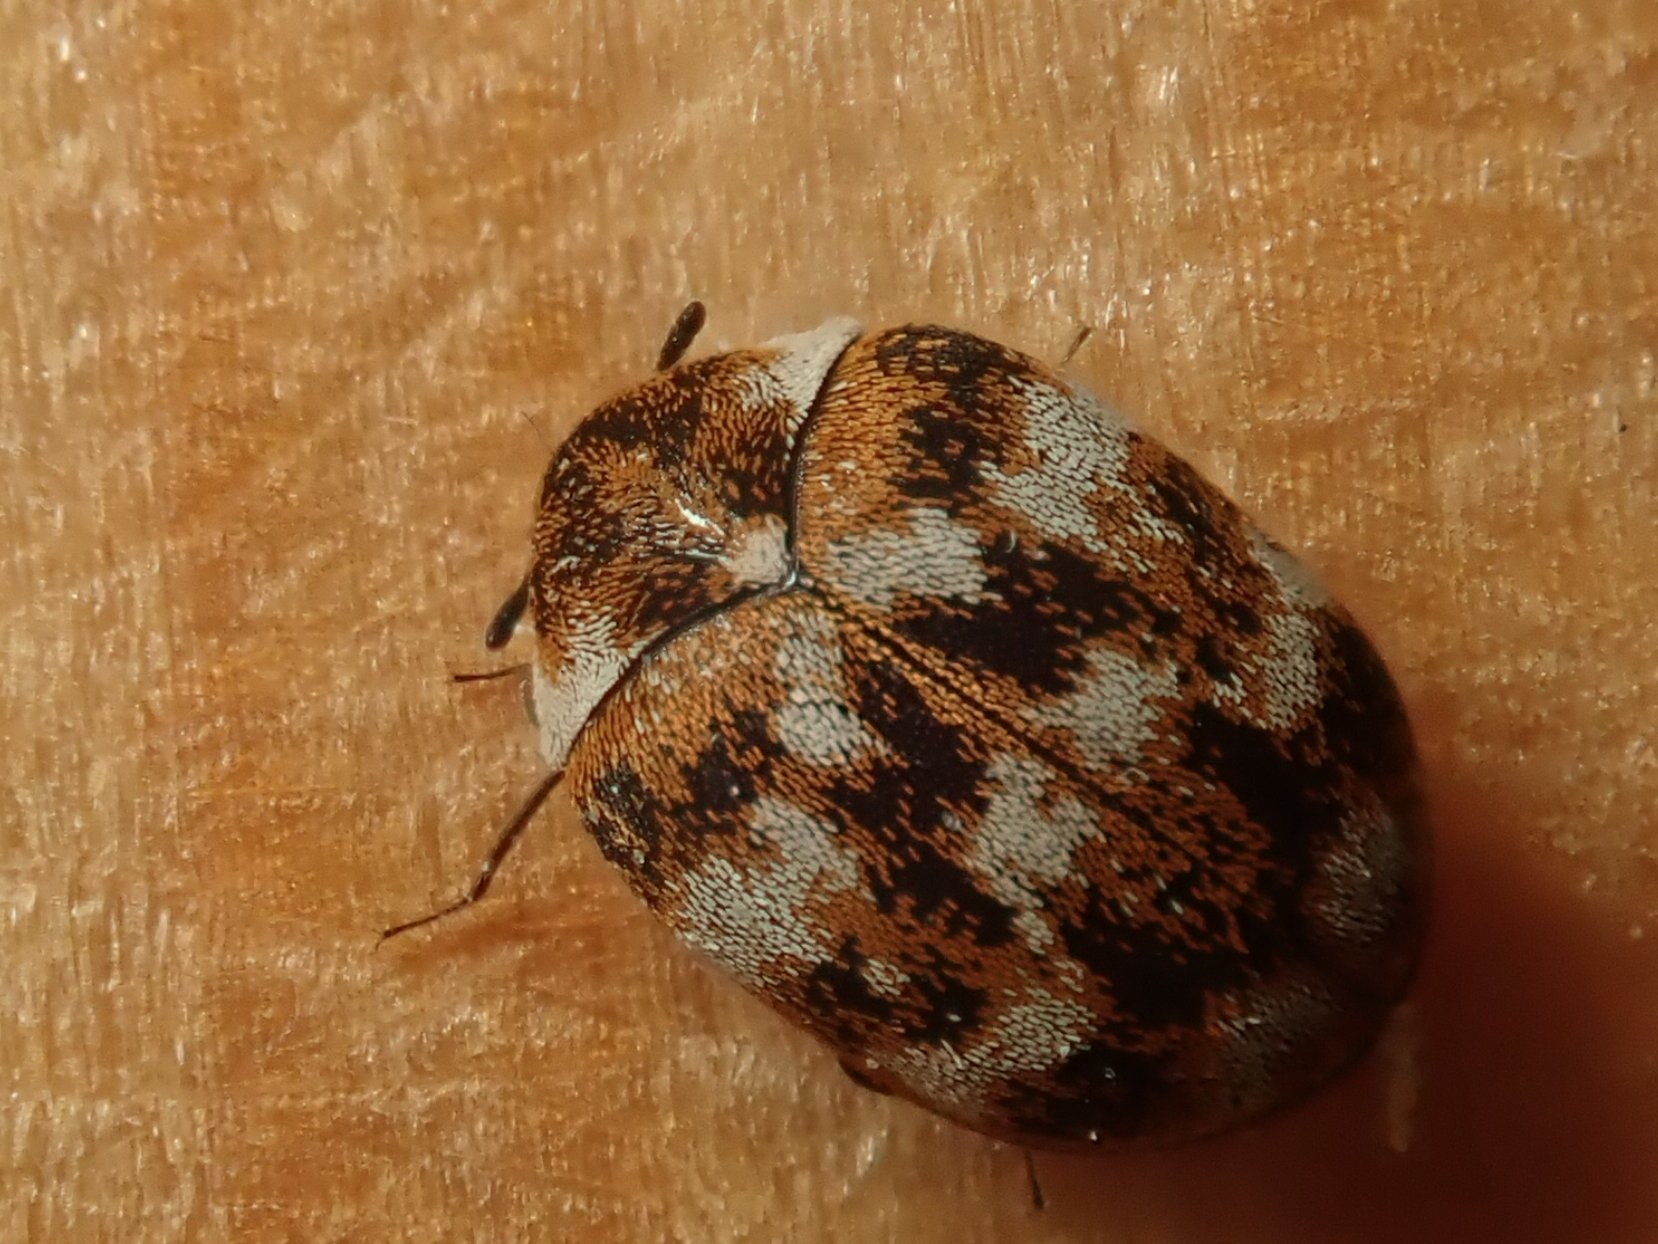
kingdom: Animalia
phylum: Arthropoda
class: Insecta
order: Coleoptera
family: Dermestidae
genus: Anthrenus
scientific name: Anthrenus verbasci
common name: Varied carpet beetle
